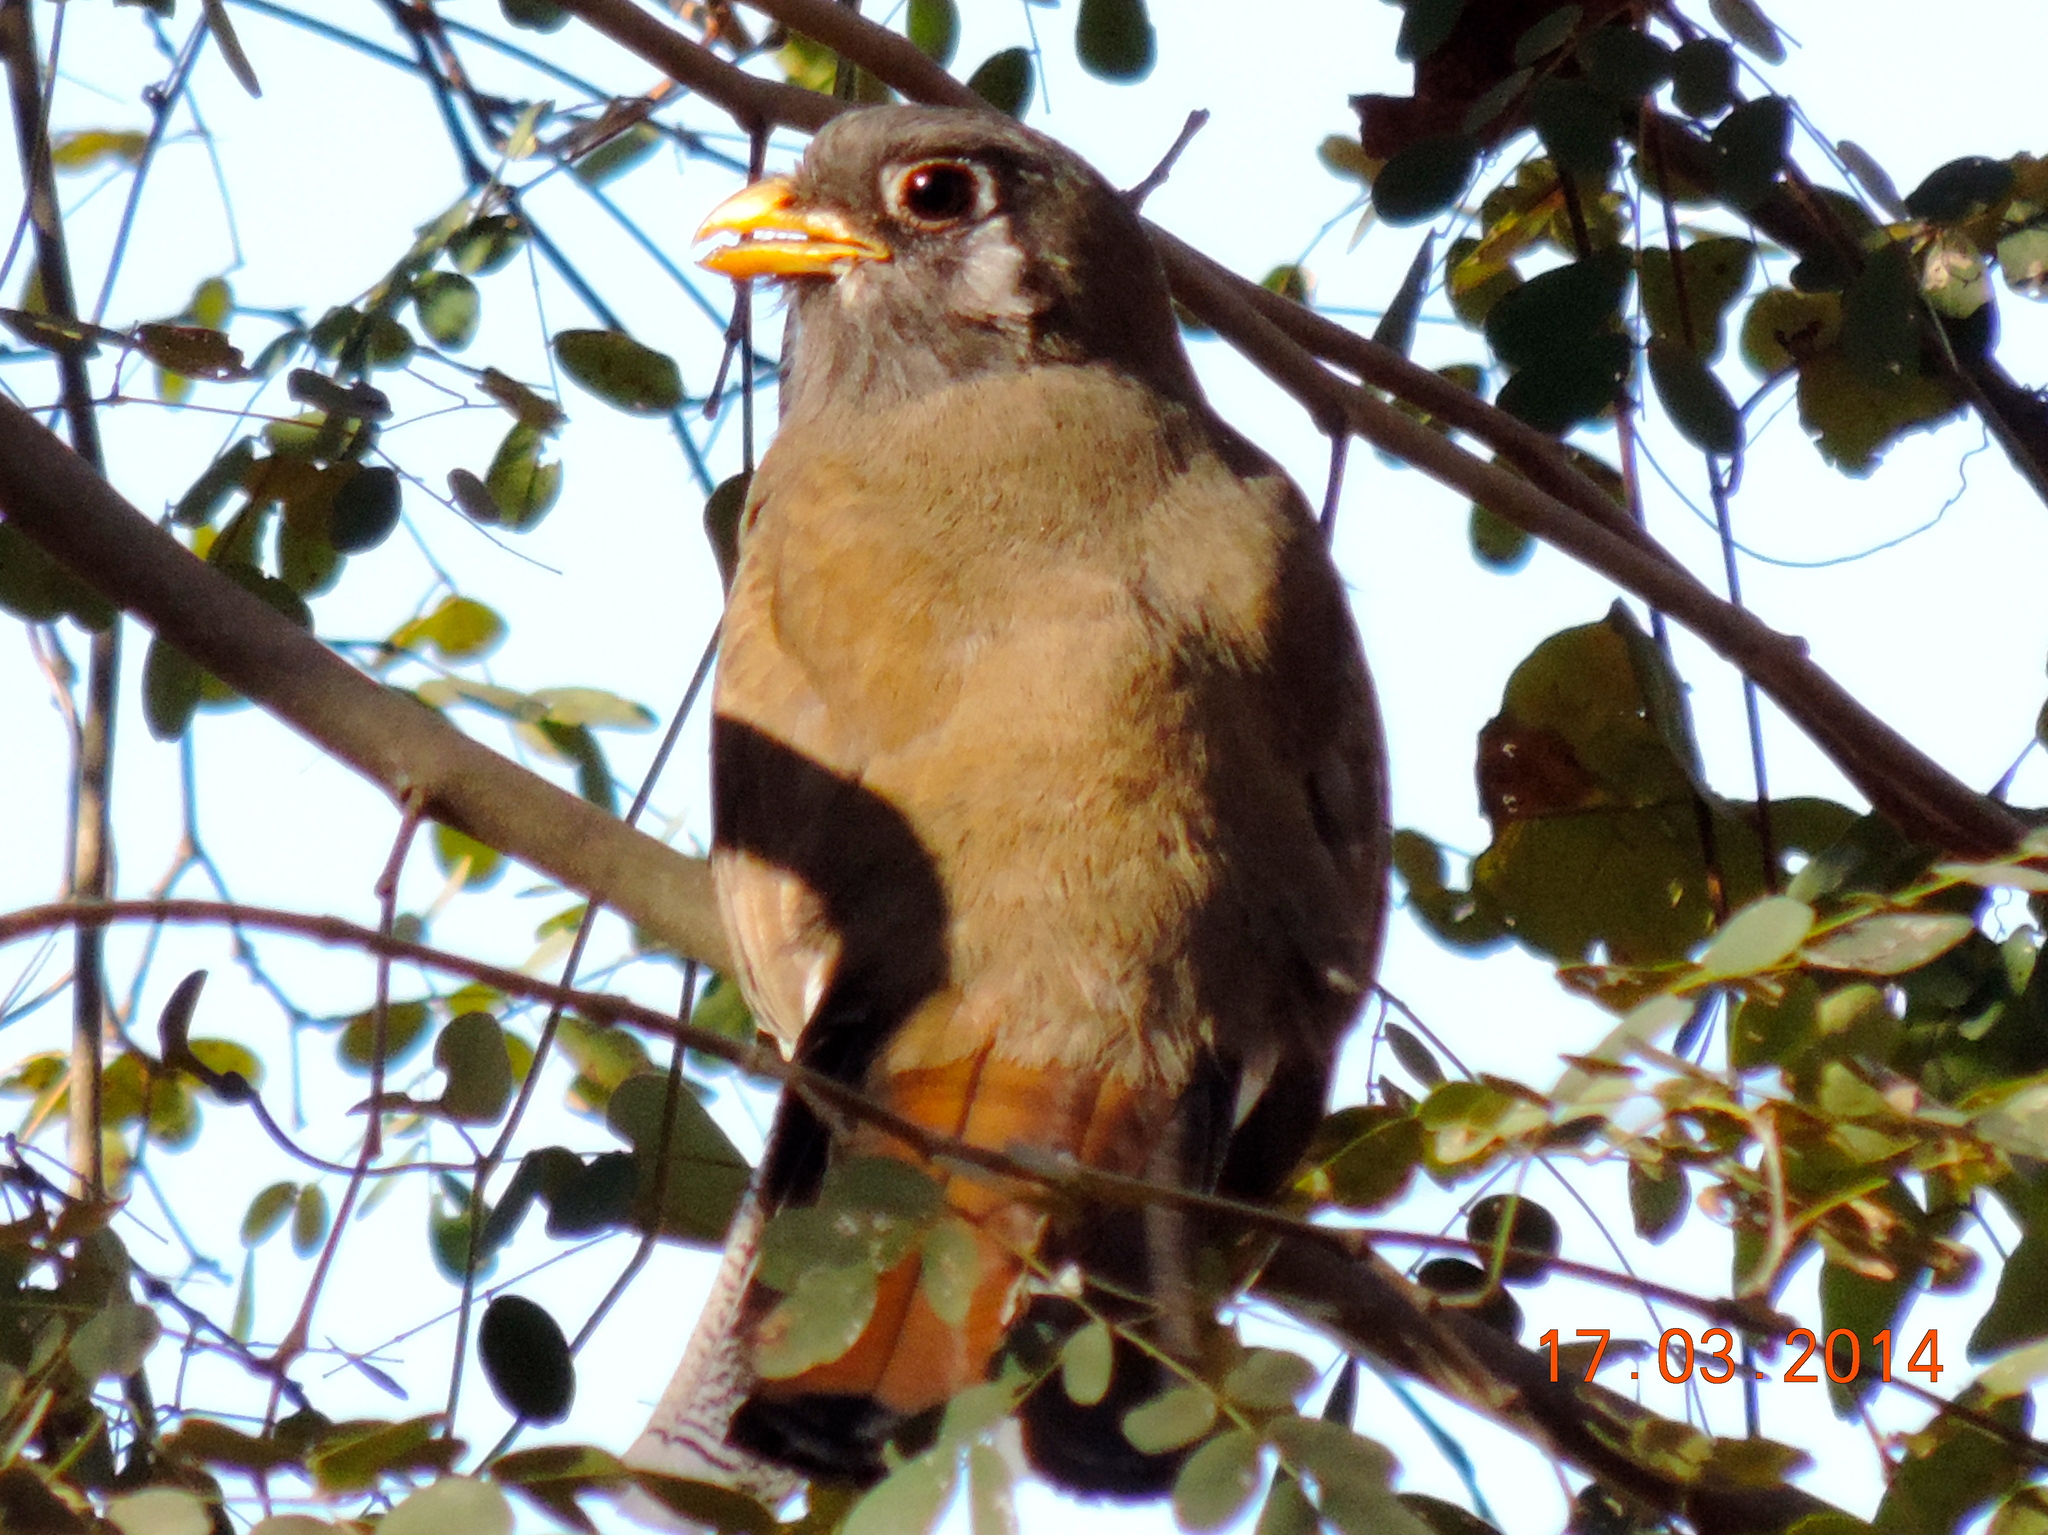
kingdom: Animalia
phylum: Chordata
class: Aves
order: Trogoniformes
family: Trogonidae
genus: Trogon
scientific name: Trogon elegans
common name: Elegant trogon
